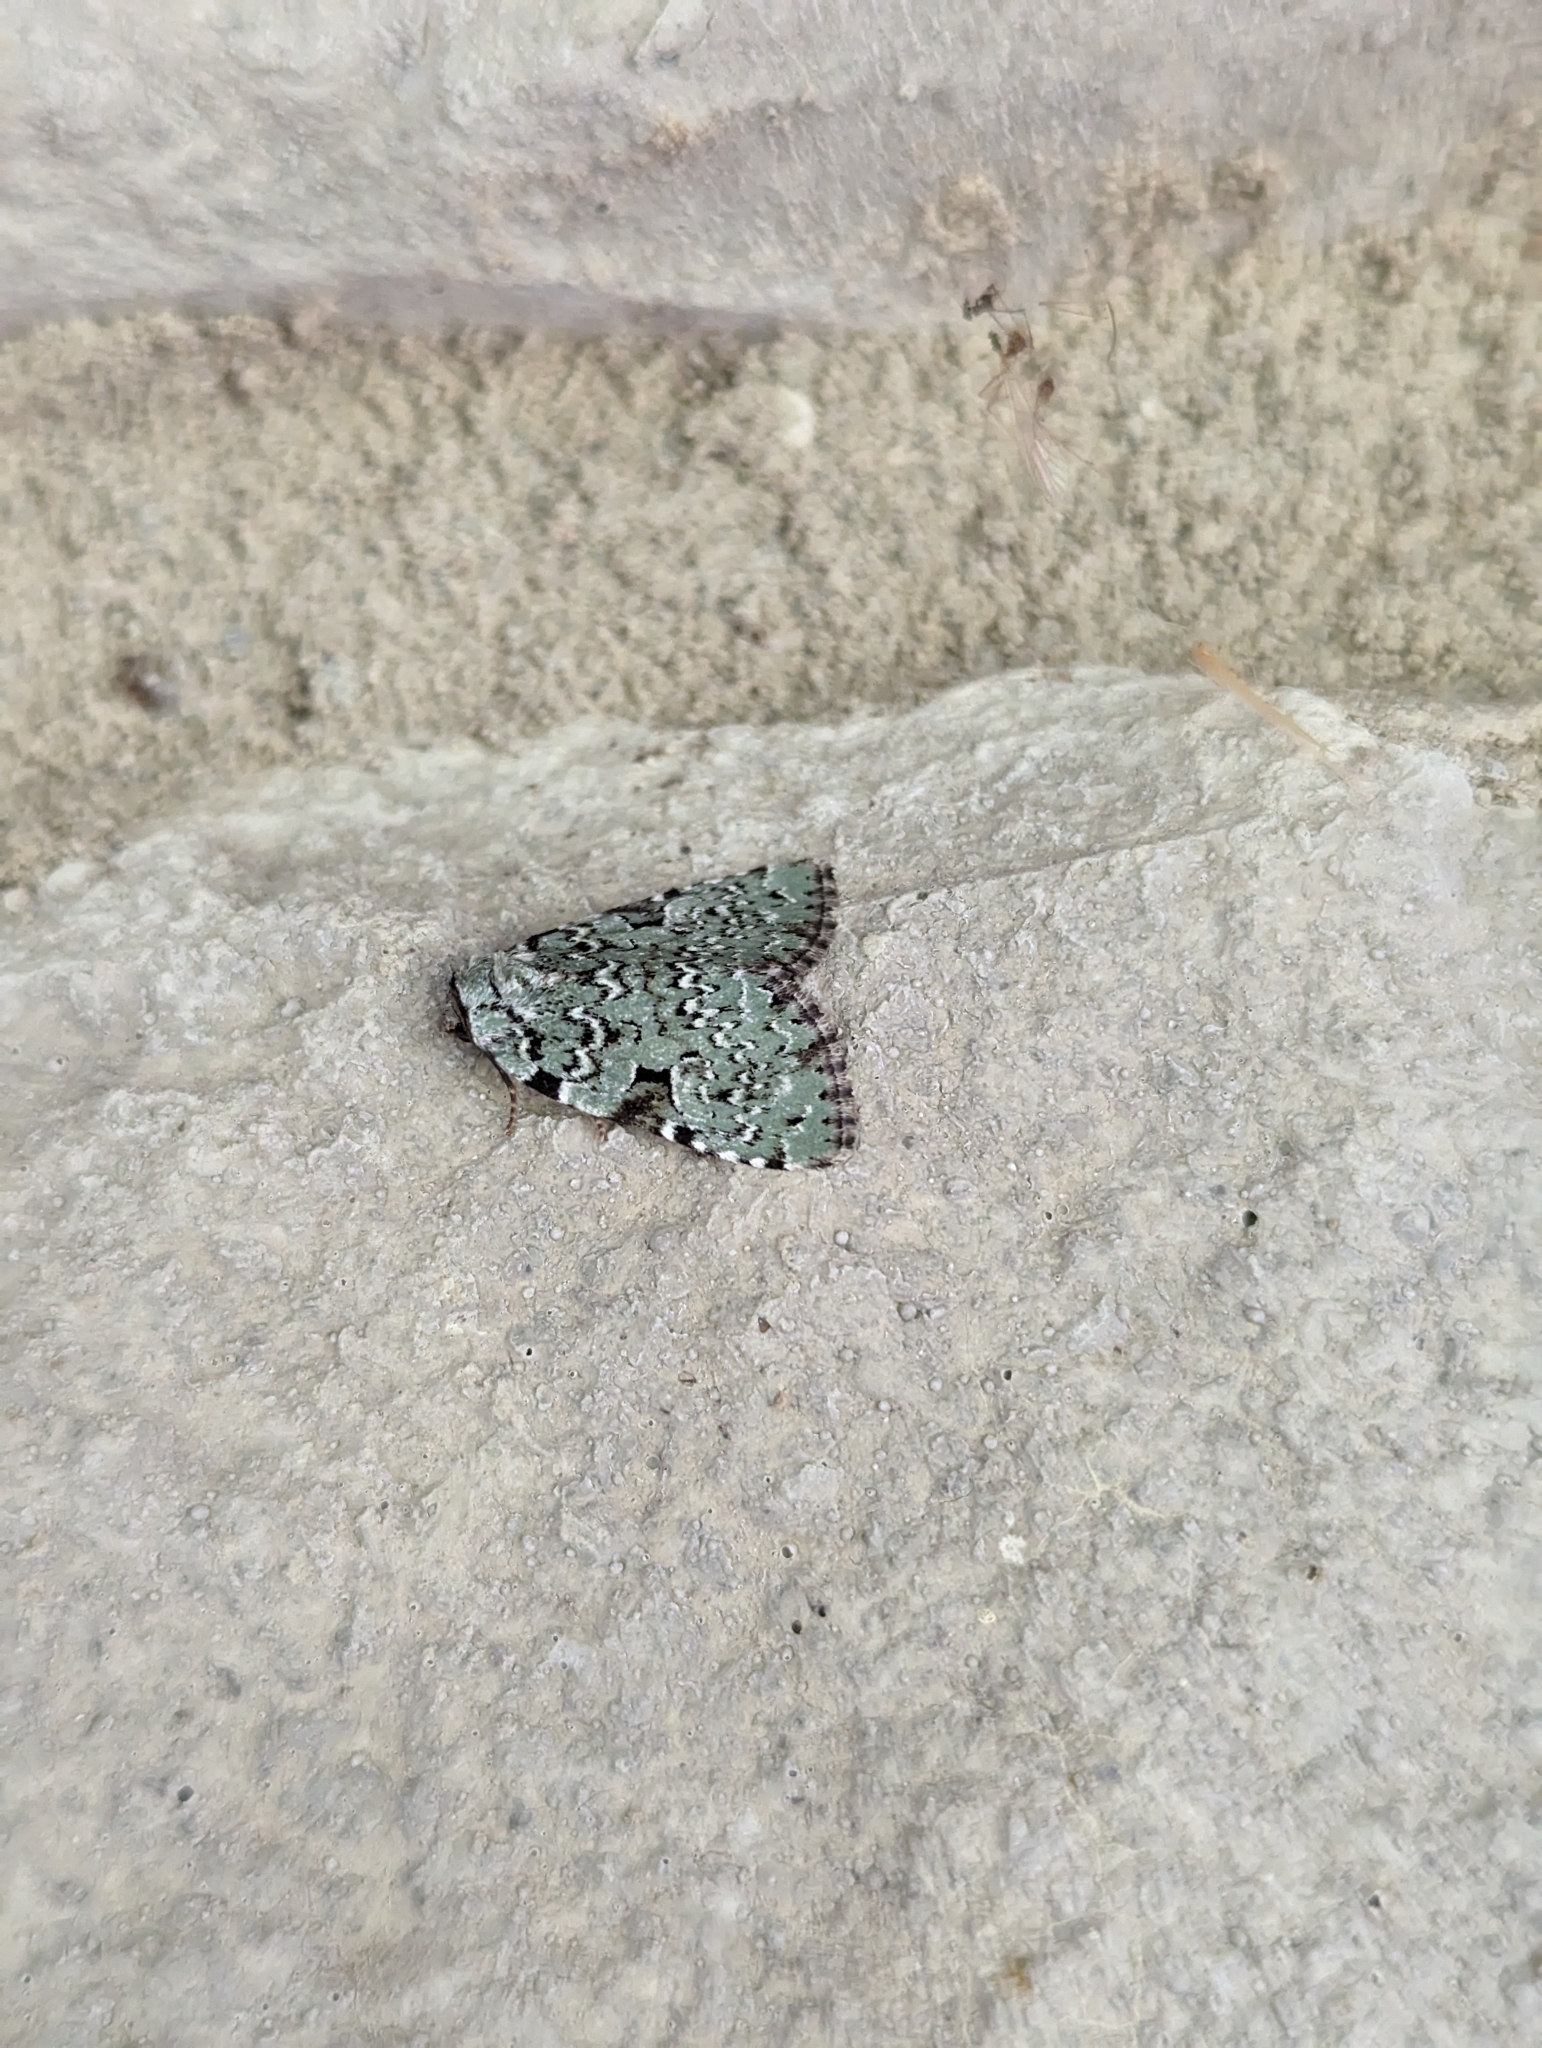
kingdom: Animalia
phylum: Arthropoda
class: Insecta
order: Lepidoptera
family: Noctuidae
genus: Leuconycta
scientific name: Leuconycta diphteroides
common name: Green leuconycta moth
